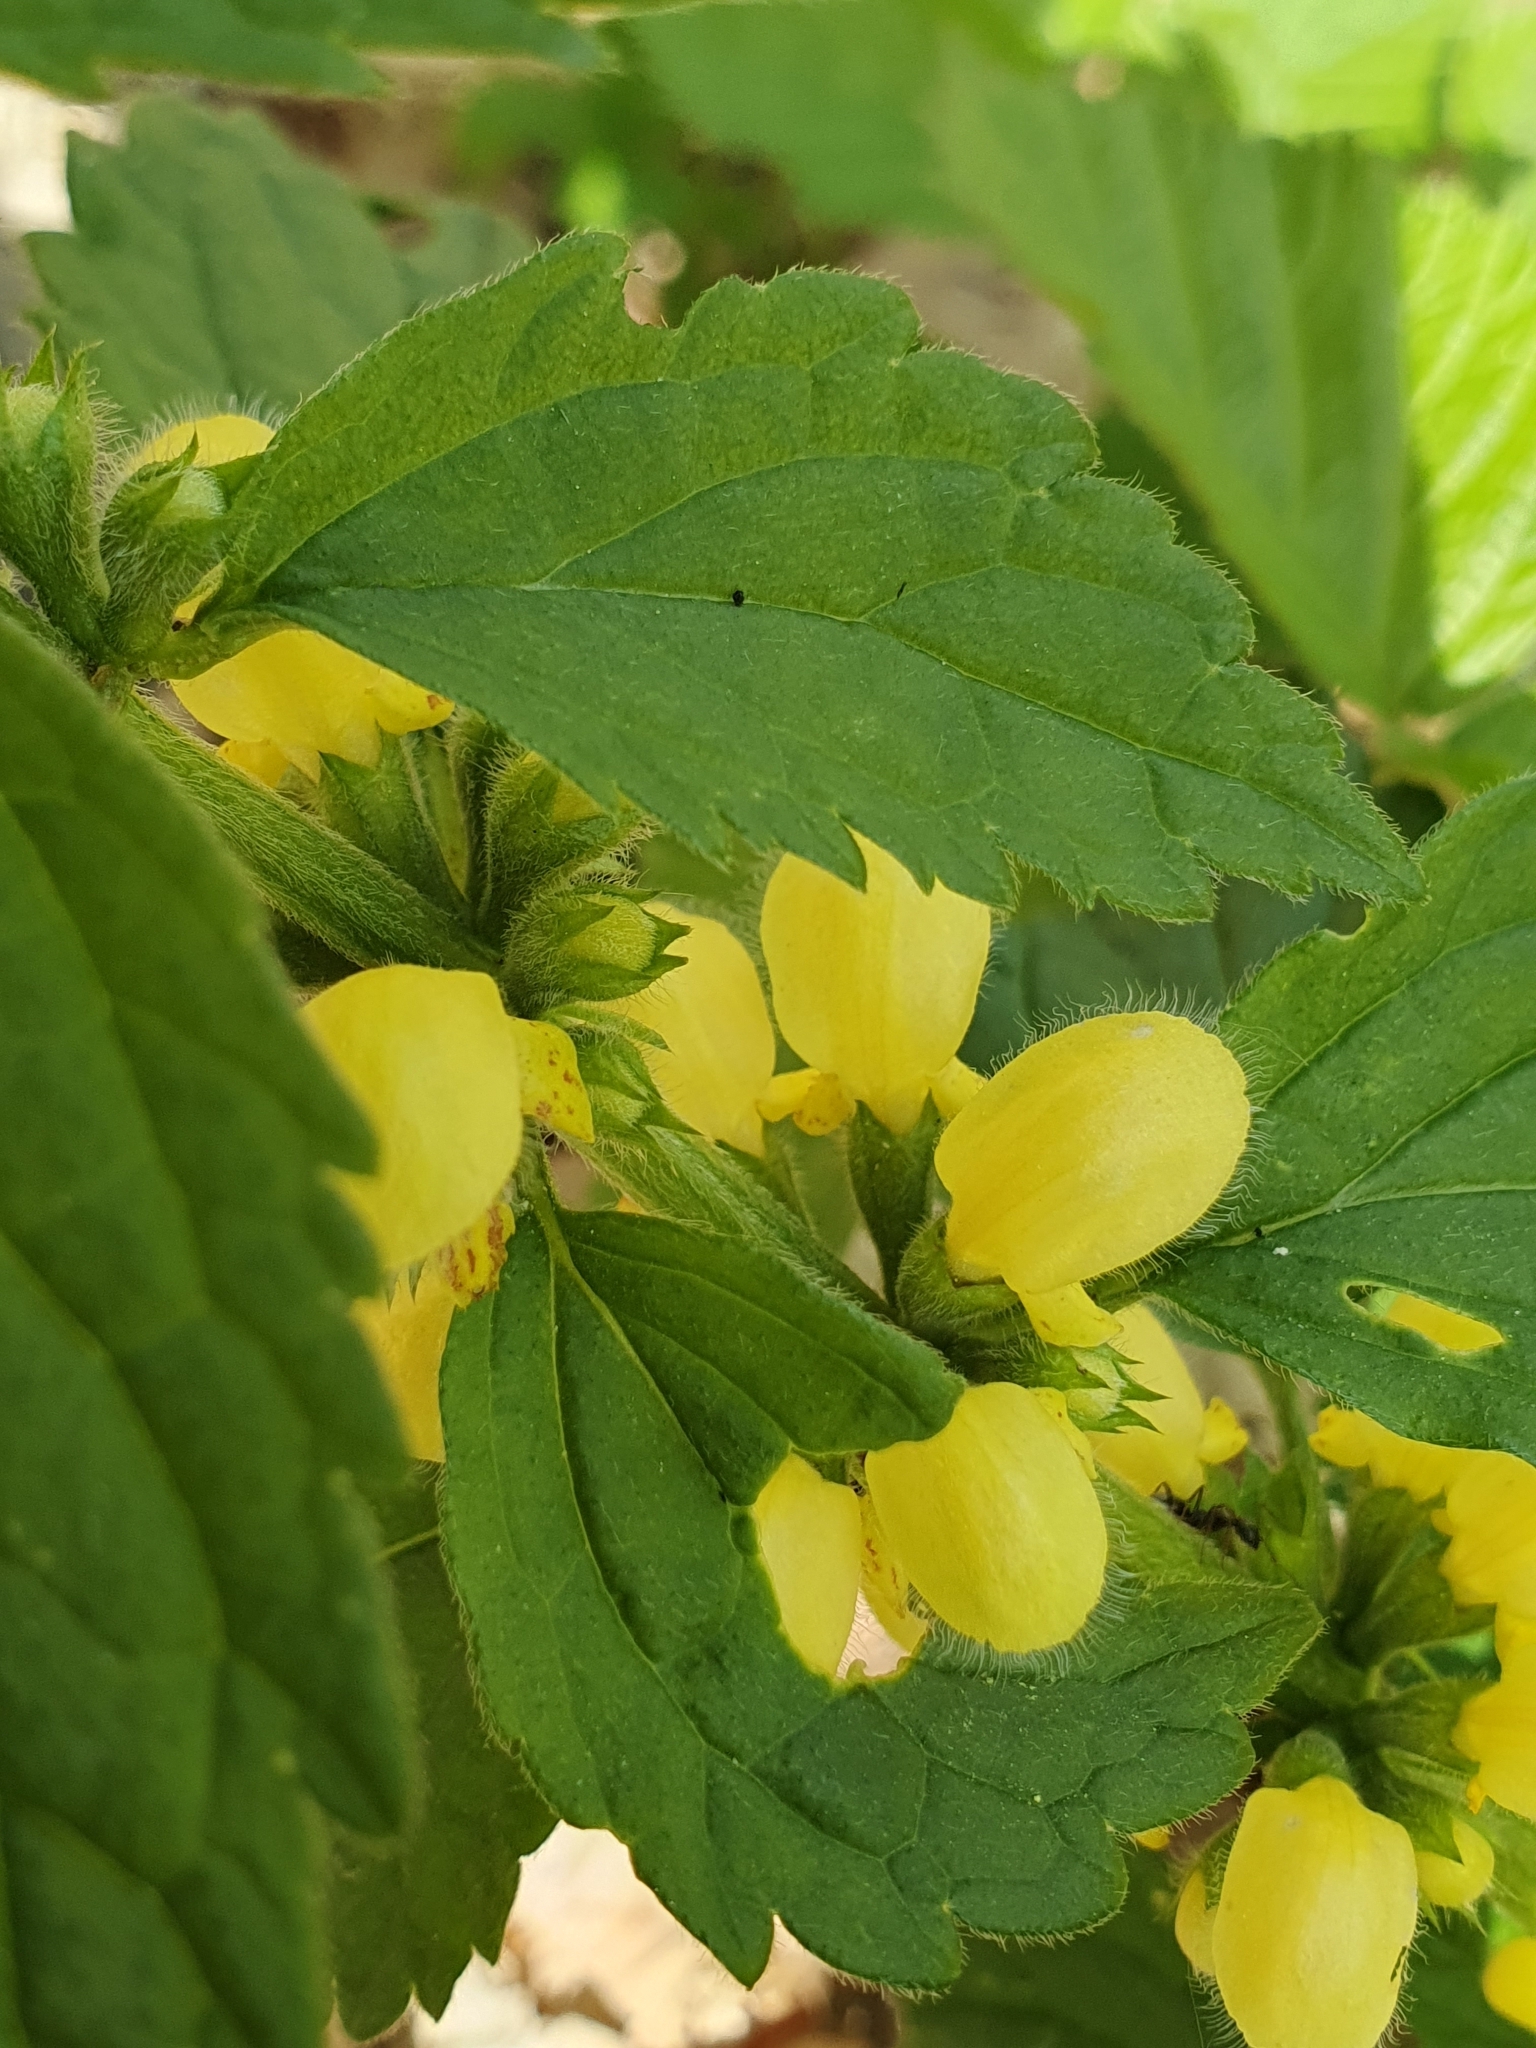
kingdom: Plantae
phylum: Tracheophyta
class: Magnoliopsida
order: Lamiales
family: Lamiaceae
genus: Lamium
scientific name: Lamium galeobdolon
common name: Yellow archangel
